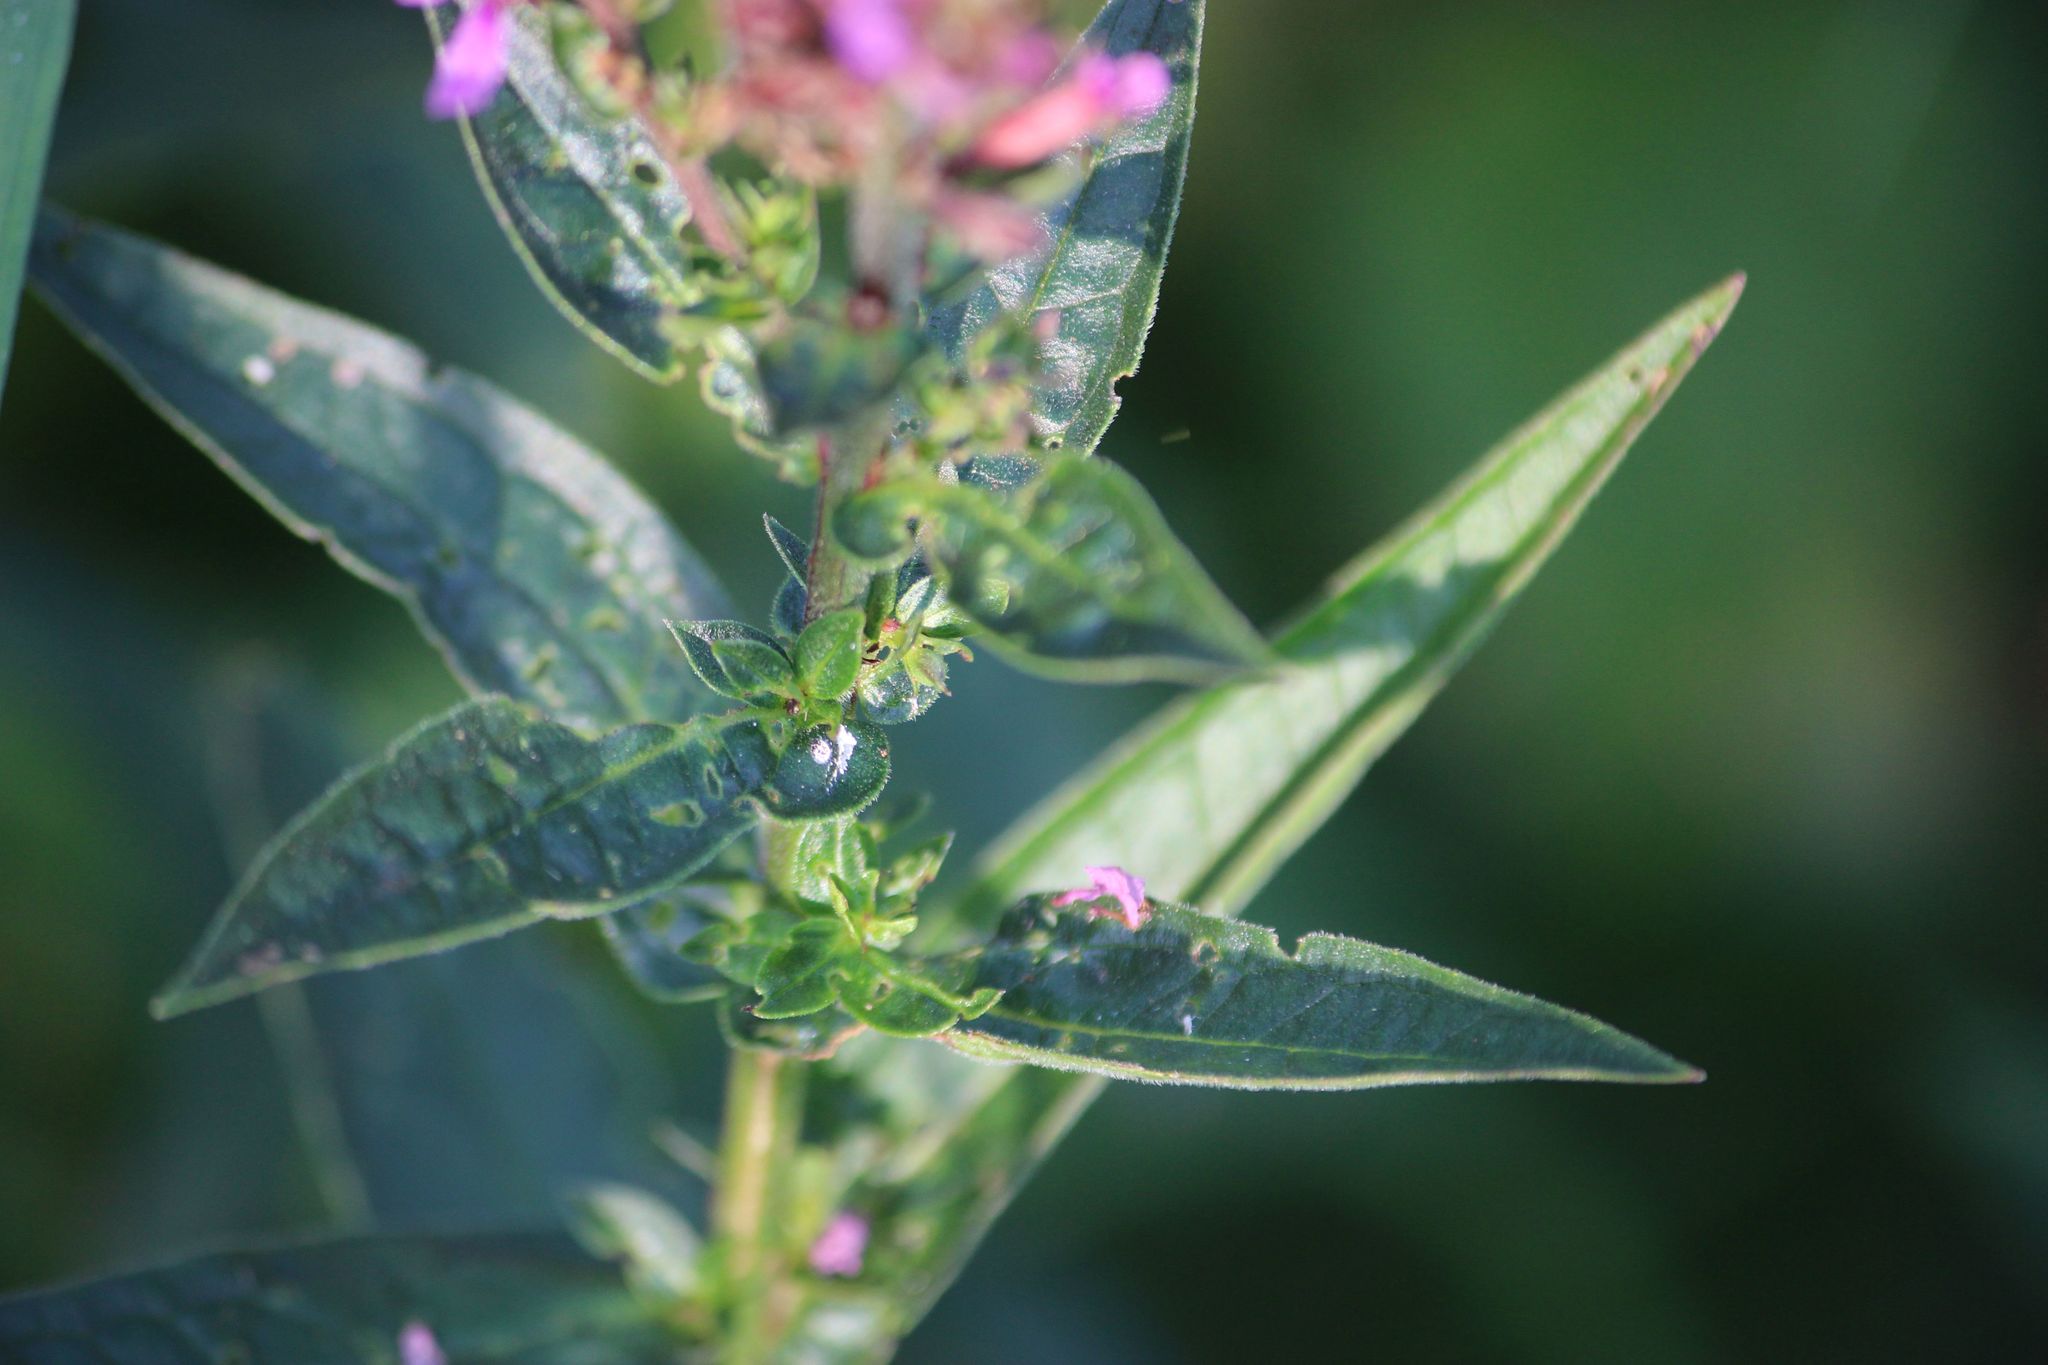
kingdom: Plantae
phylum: Tracheophyta
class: Magnoliopsida
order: Myrtales
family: Lythraceae
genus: Lythrum
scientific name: Lythrum salicaria
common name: Purple loosestrife
